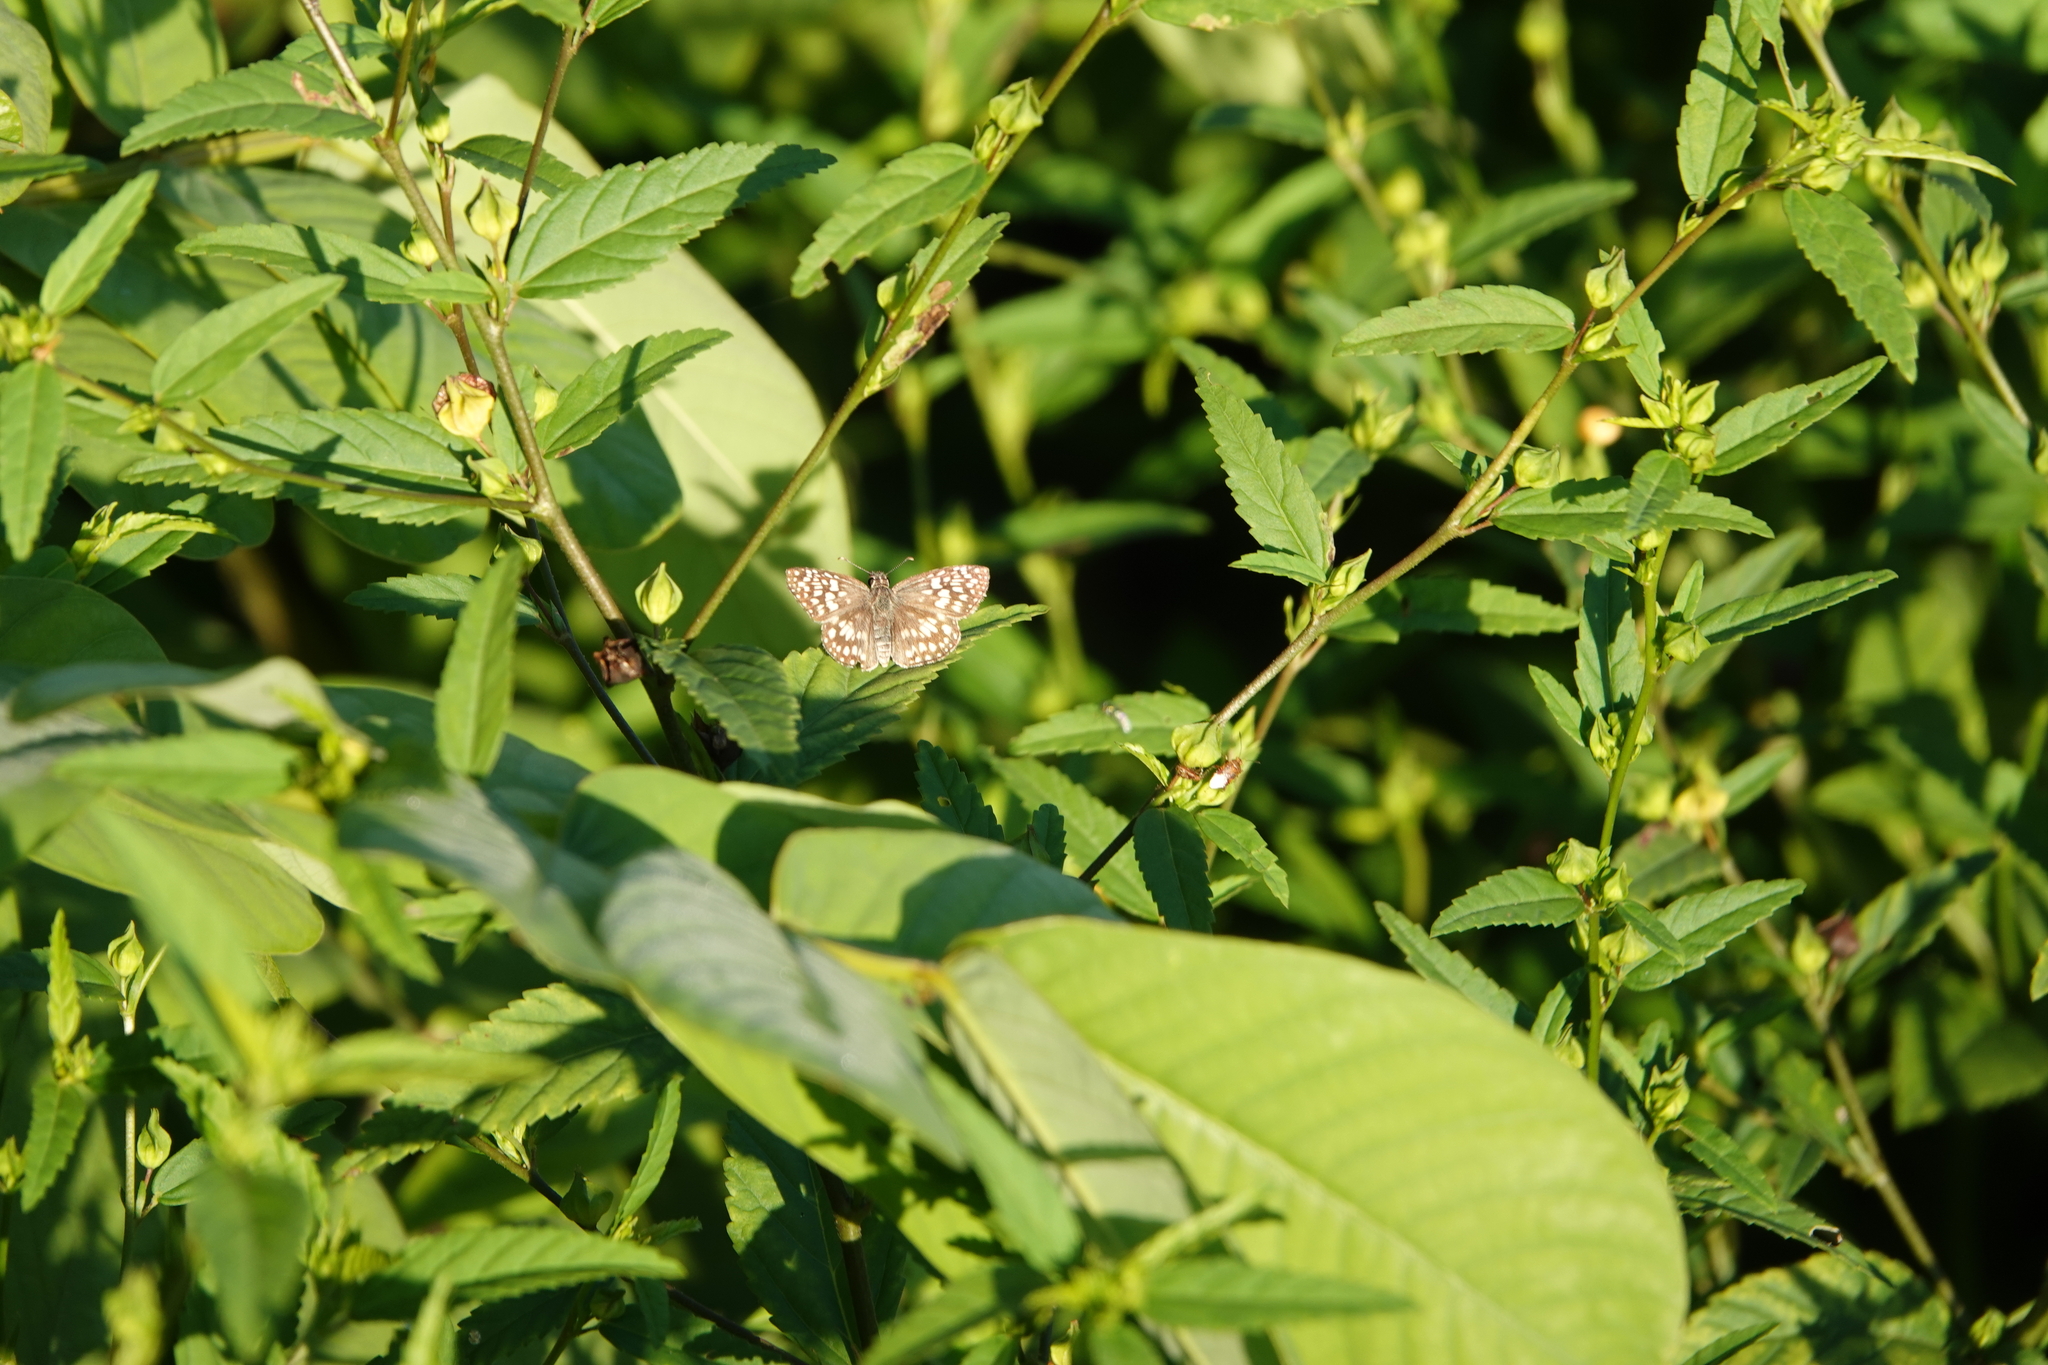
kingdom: Animalia
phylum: Arthropoda
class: Insecta
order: Lepidoptera
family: Hesperiidae
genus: Pyrgus
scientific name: Pyrgus oileus
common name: Tropical checkered-skipper
